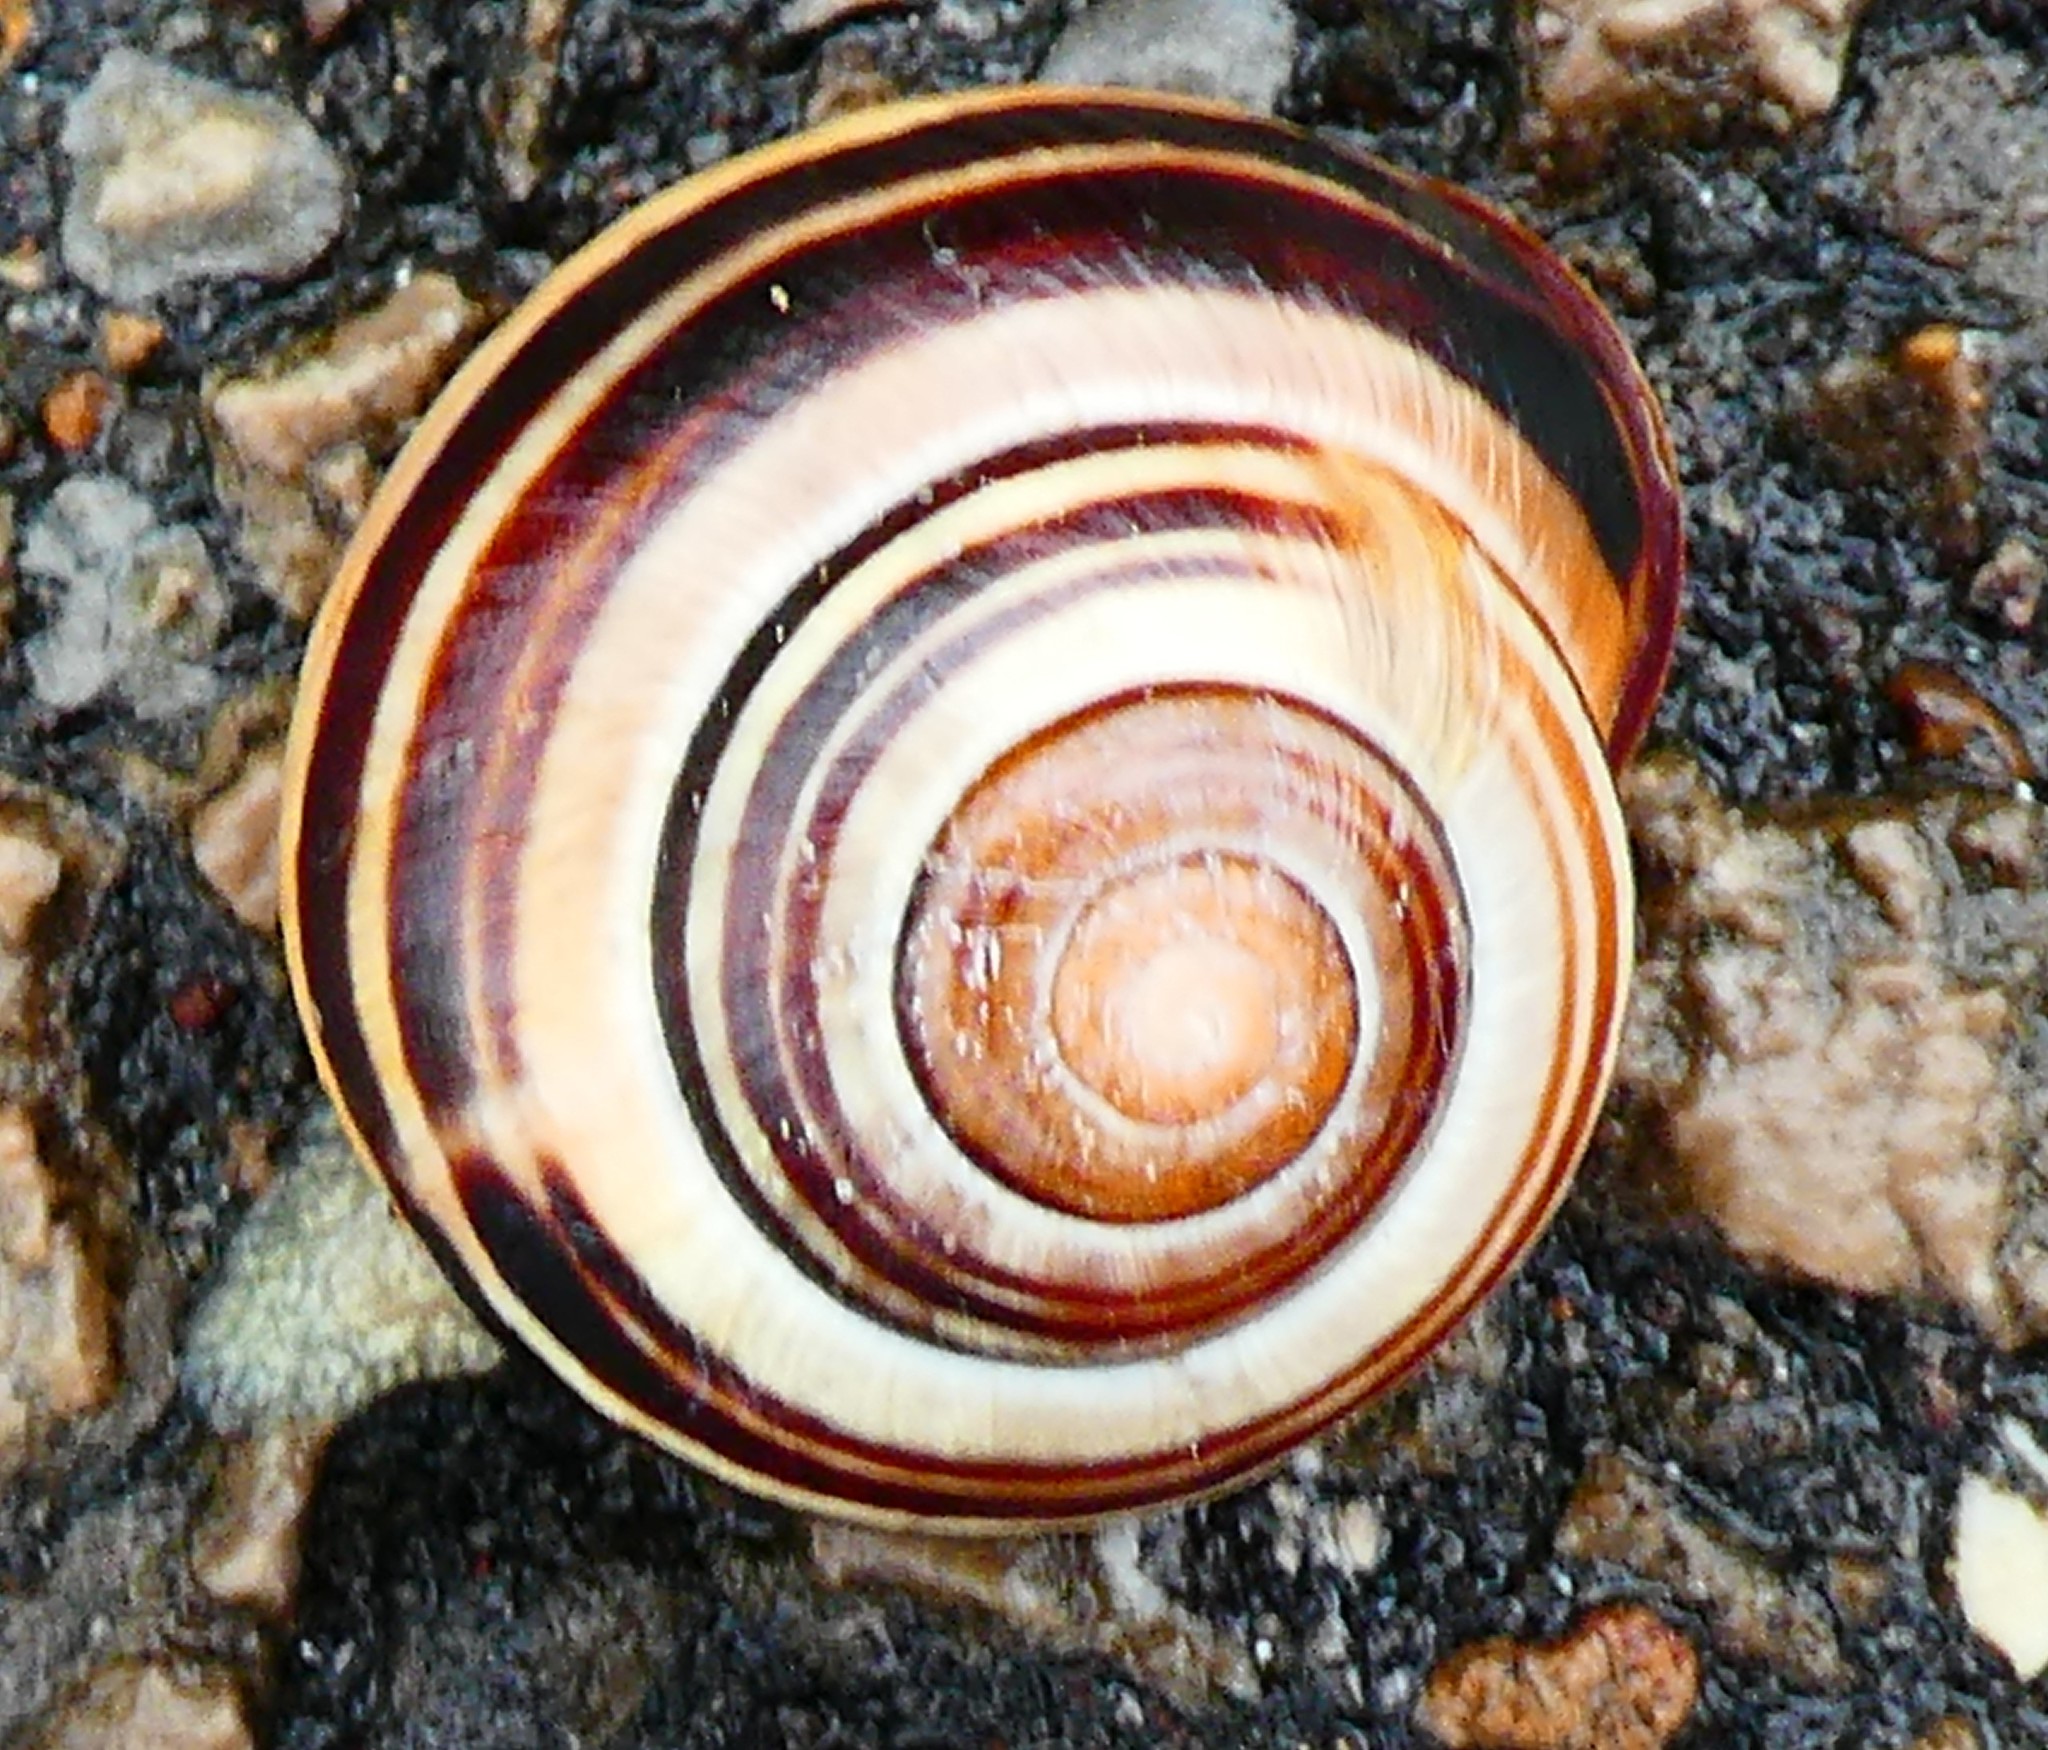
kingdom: Animalia
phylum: Mollusca
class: Gastropoda
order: Stylommatophora
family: Helicidae
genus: Cepaea
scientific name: Cepaea nemoralis
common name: Grovesnail
